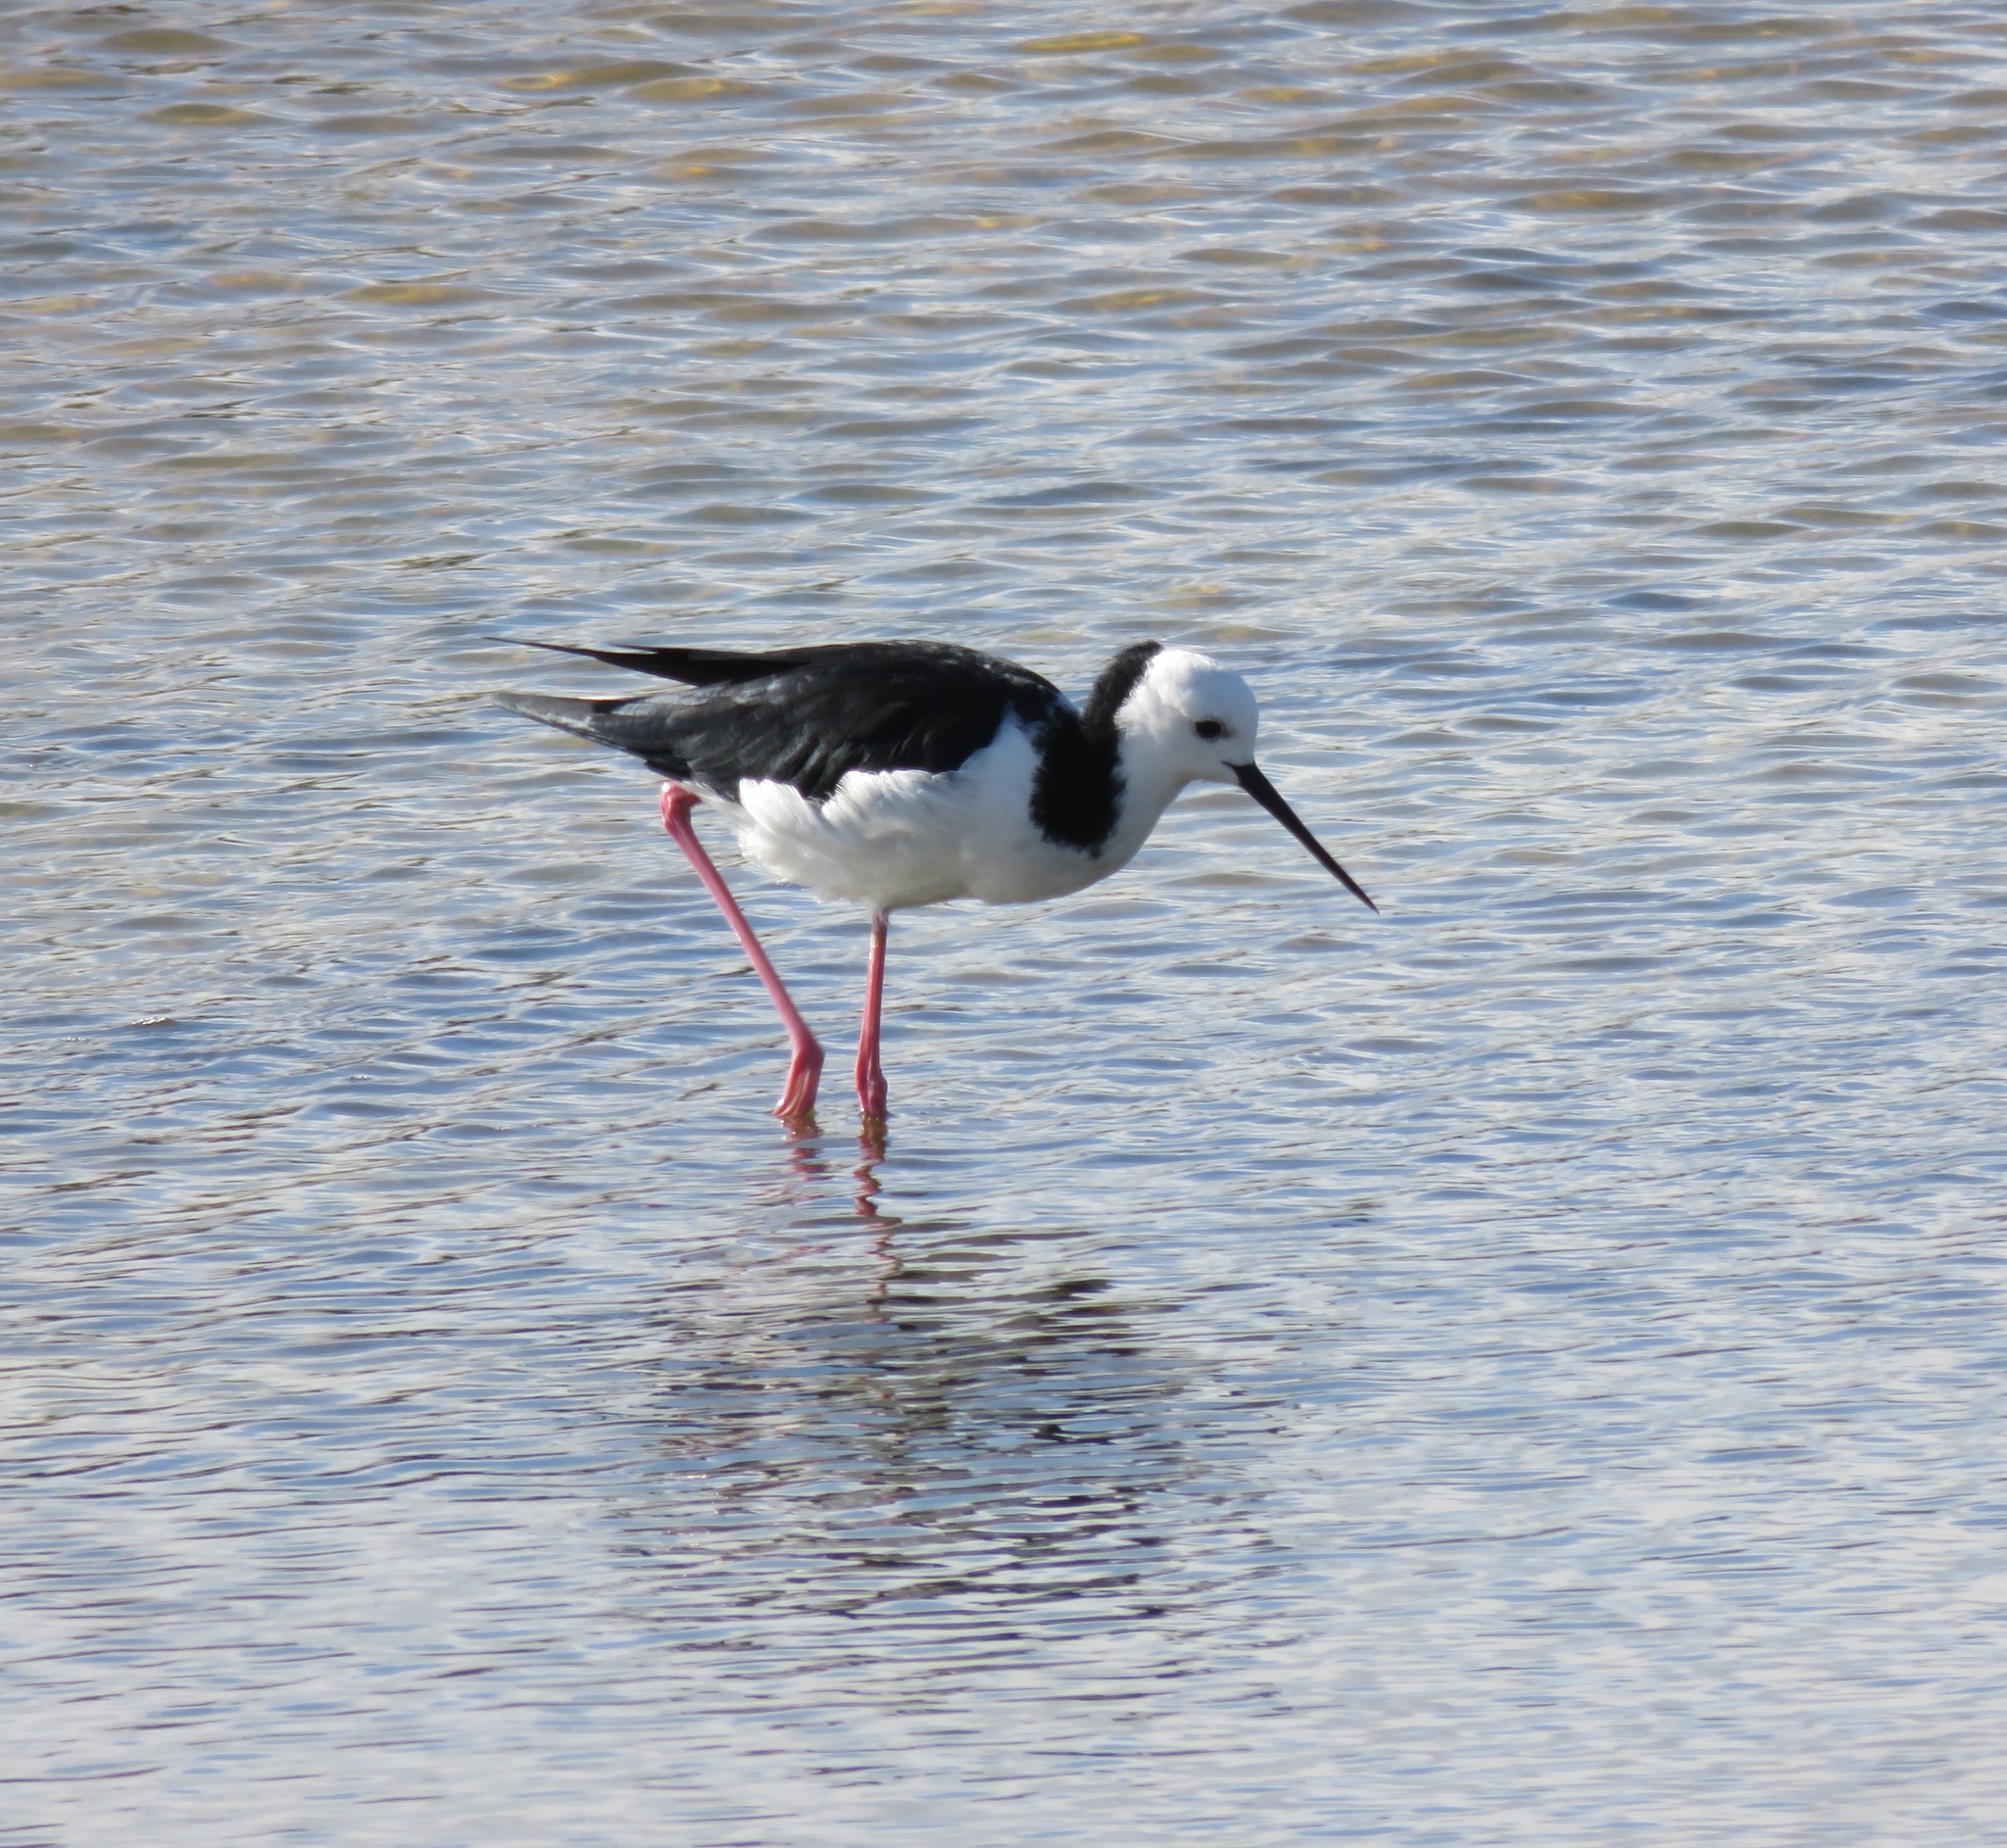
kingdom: Animalia
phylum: Chordata
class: Aves
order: Charadriiformes
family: Recurvirostridae
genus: Himantopus
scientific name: Himantopus leucocephalus
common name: White-headed stilt
